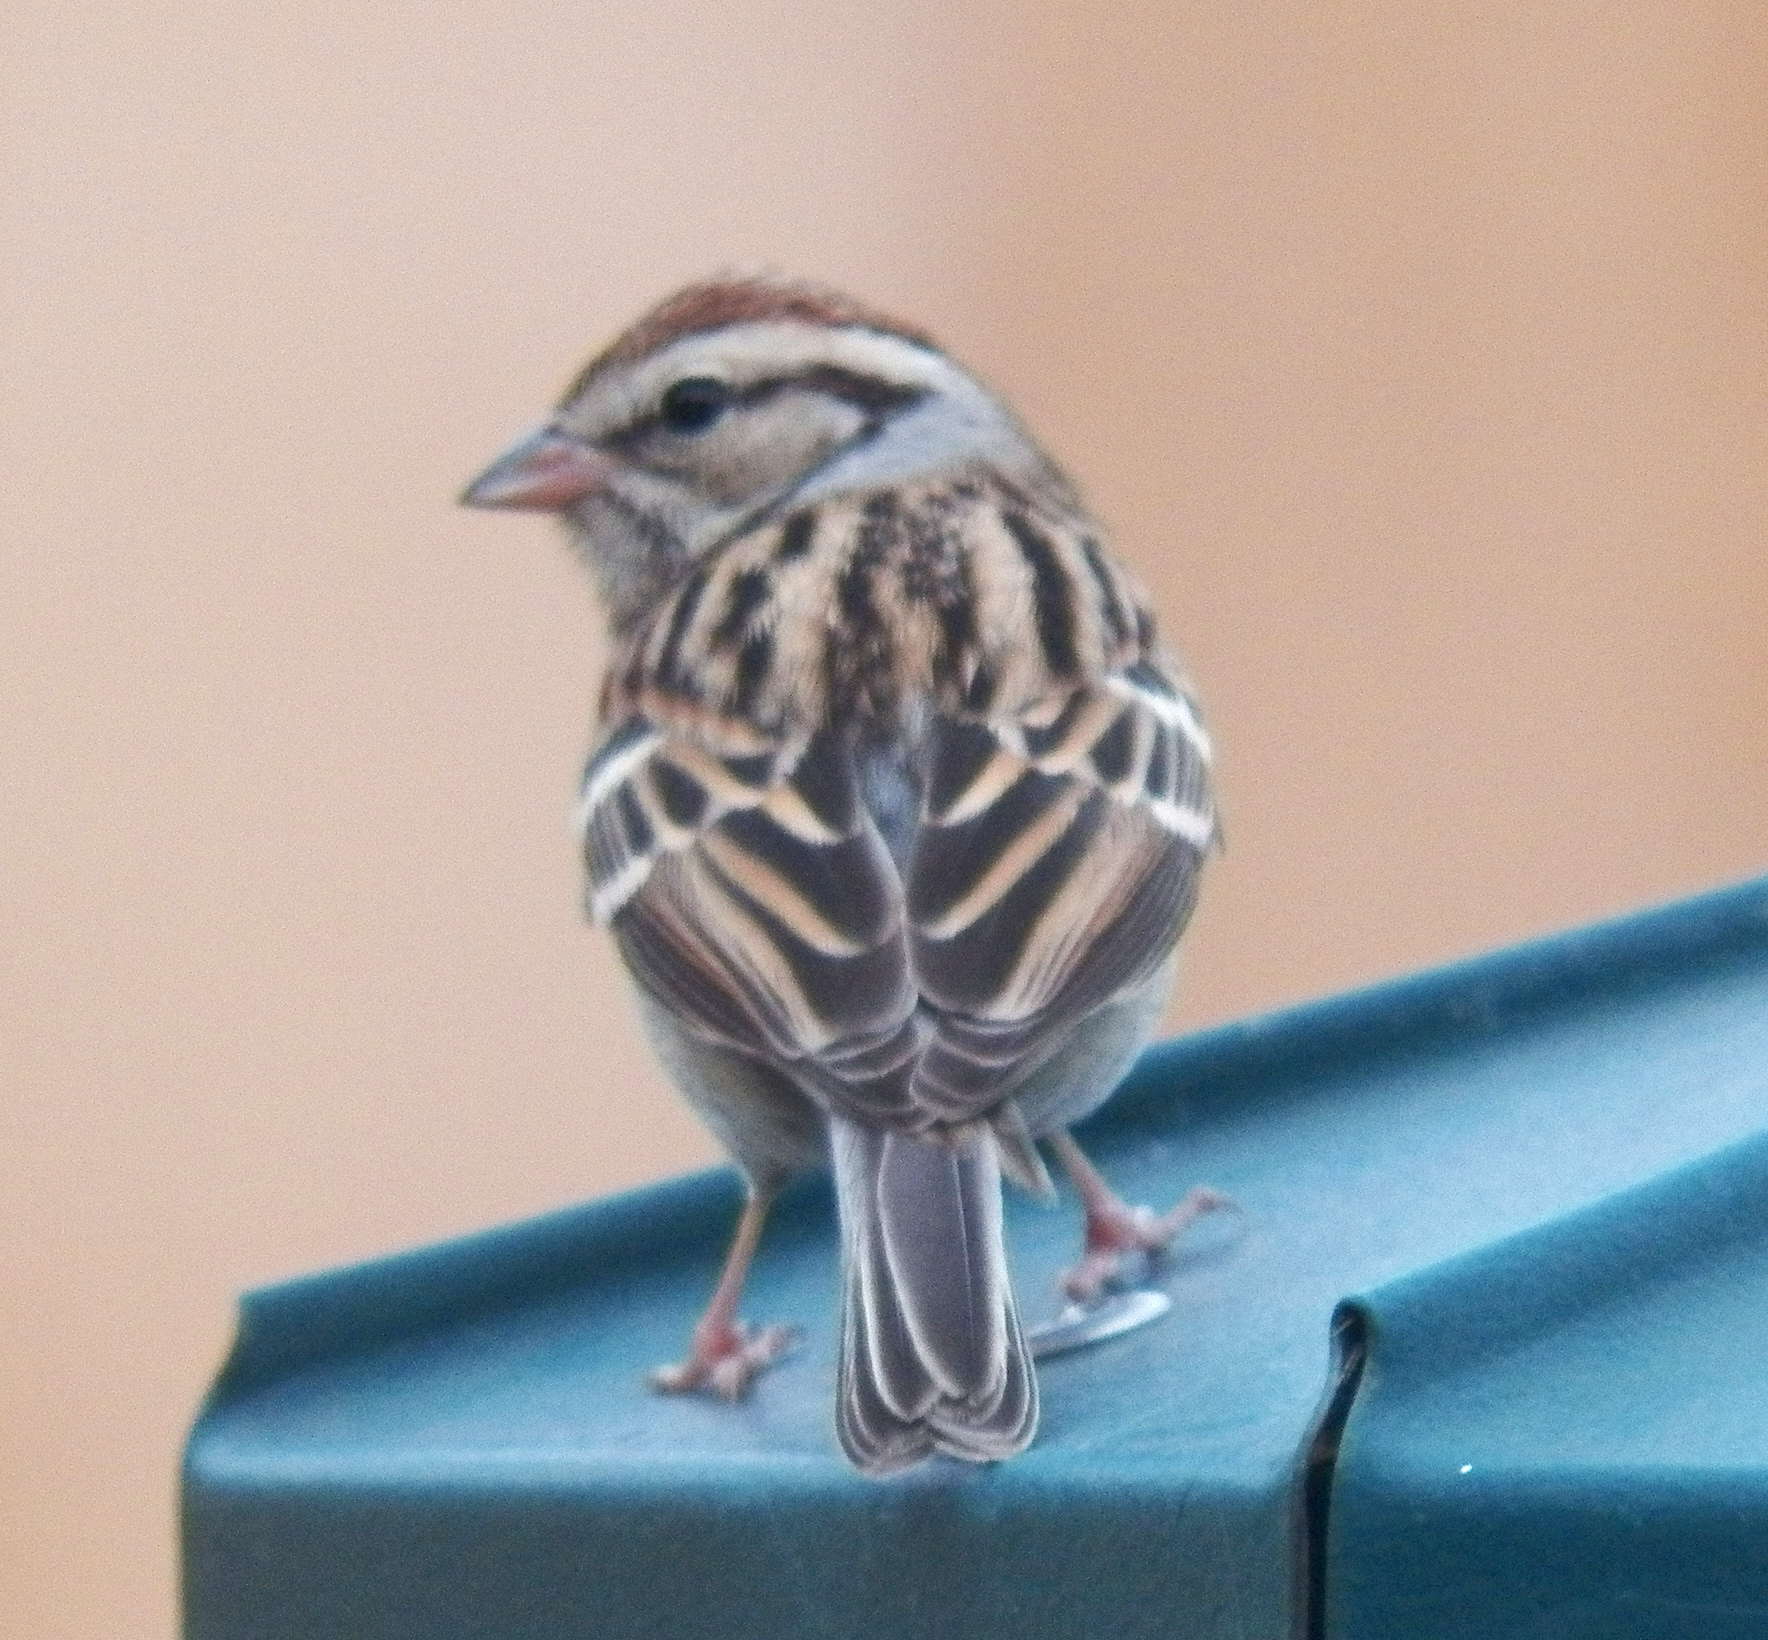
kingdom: Animalia
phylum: Chordata
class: Aves
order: Passeriformes
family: Passerellidae
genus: Spizella
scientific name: Spizella passerina
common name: Chipping sparrow
